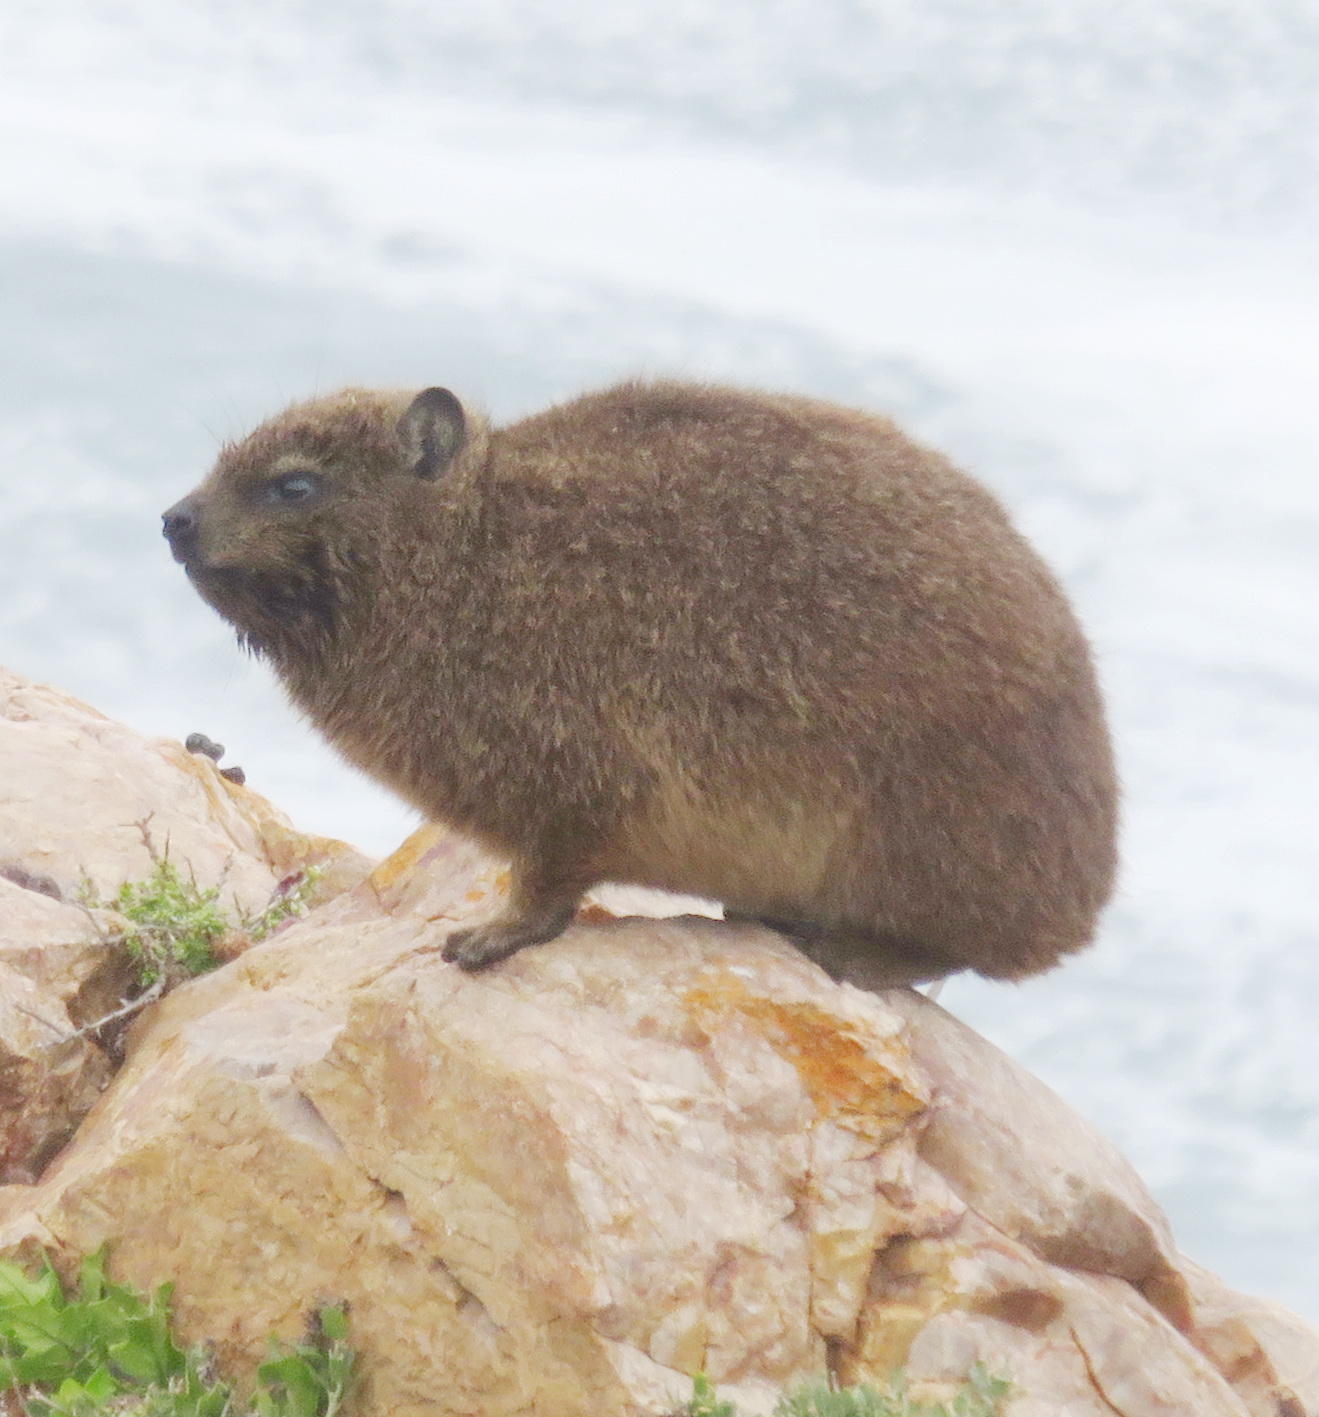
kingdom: Animalia
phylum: Chordata
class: Mammalia
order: Hyracoidea
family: Procaviidae
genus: Procavia
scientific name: Procavia capensis
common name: Rock hyrax
